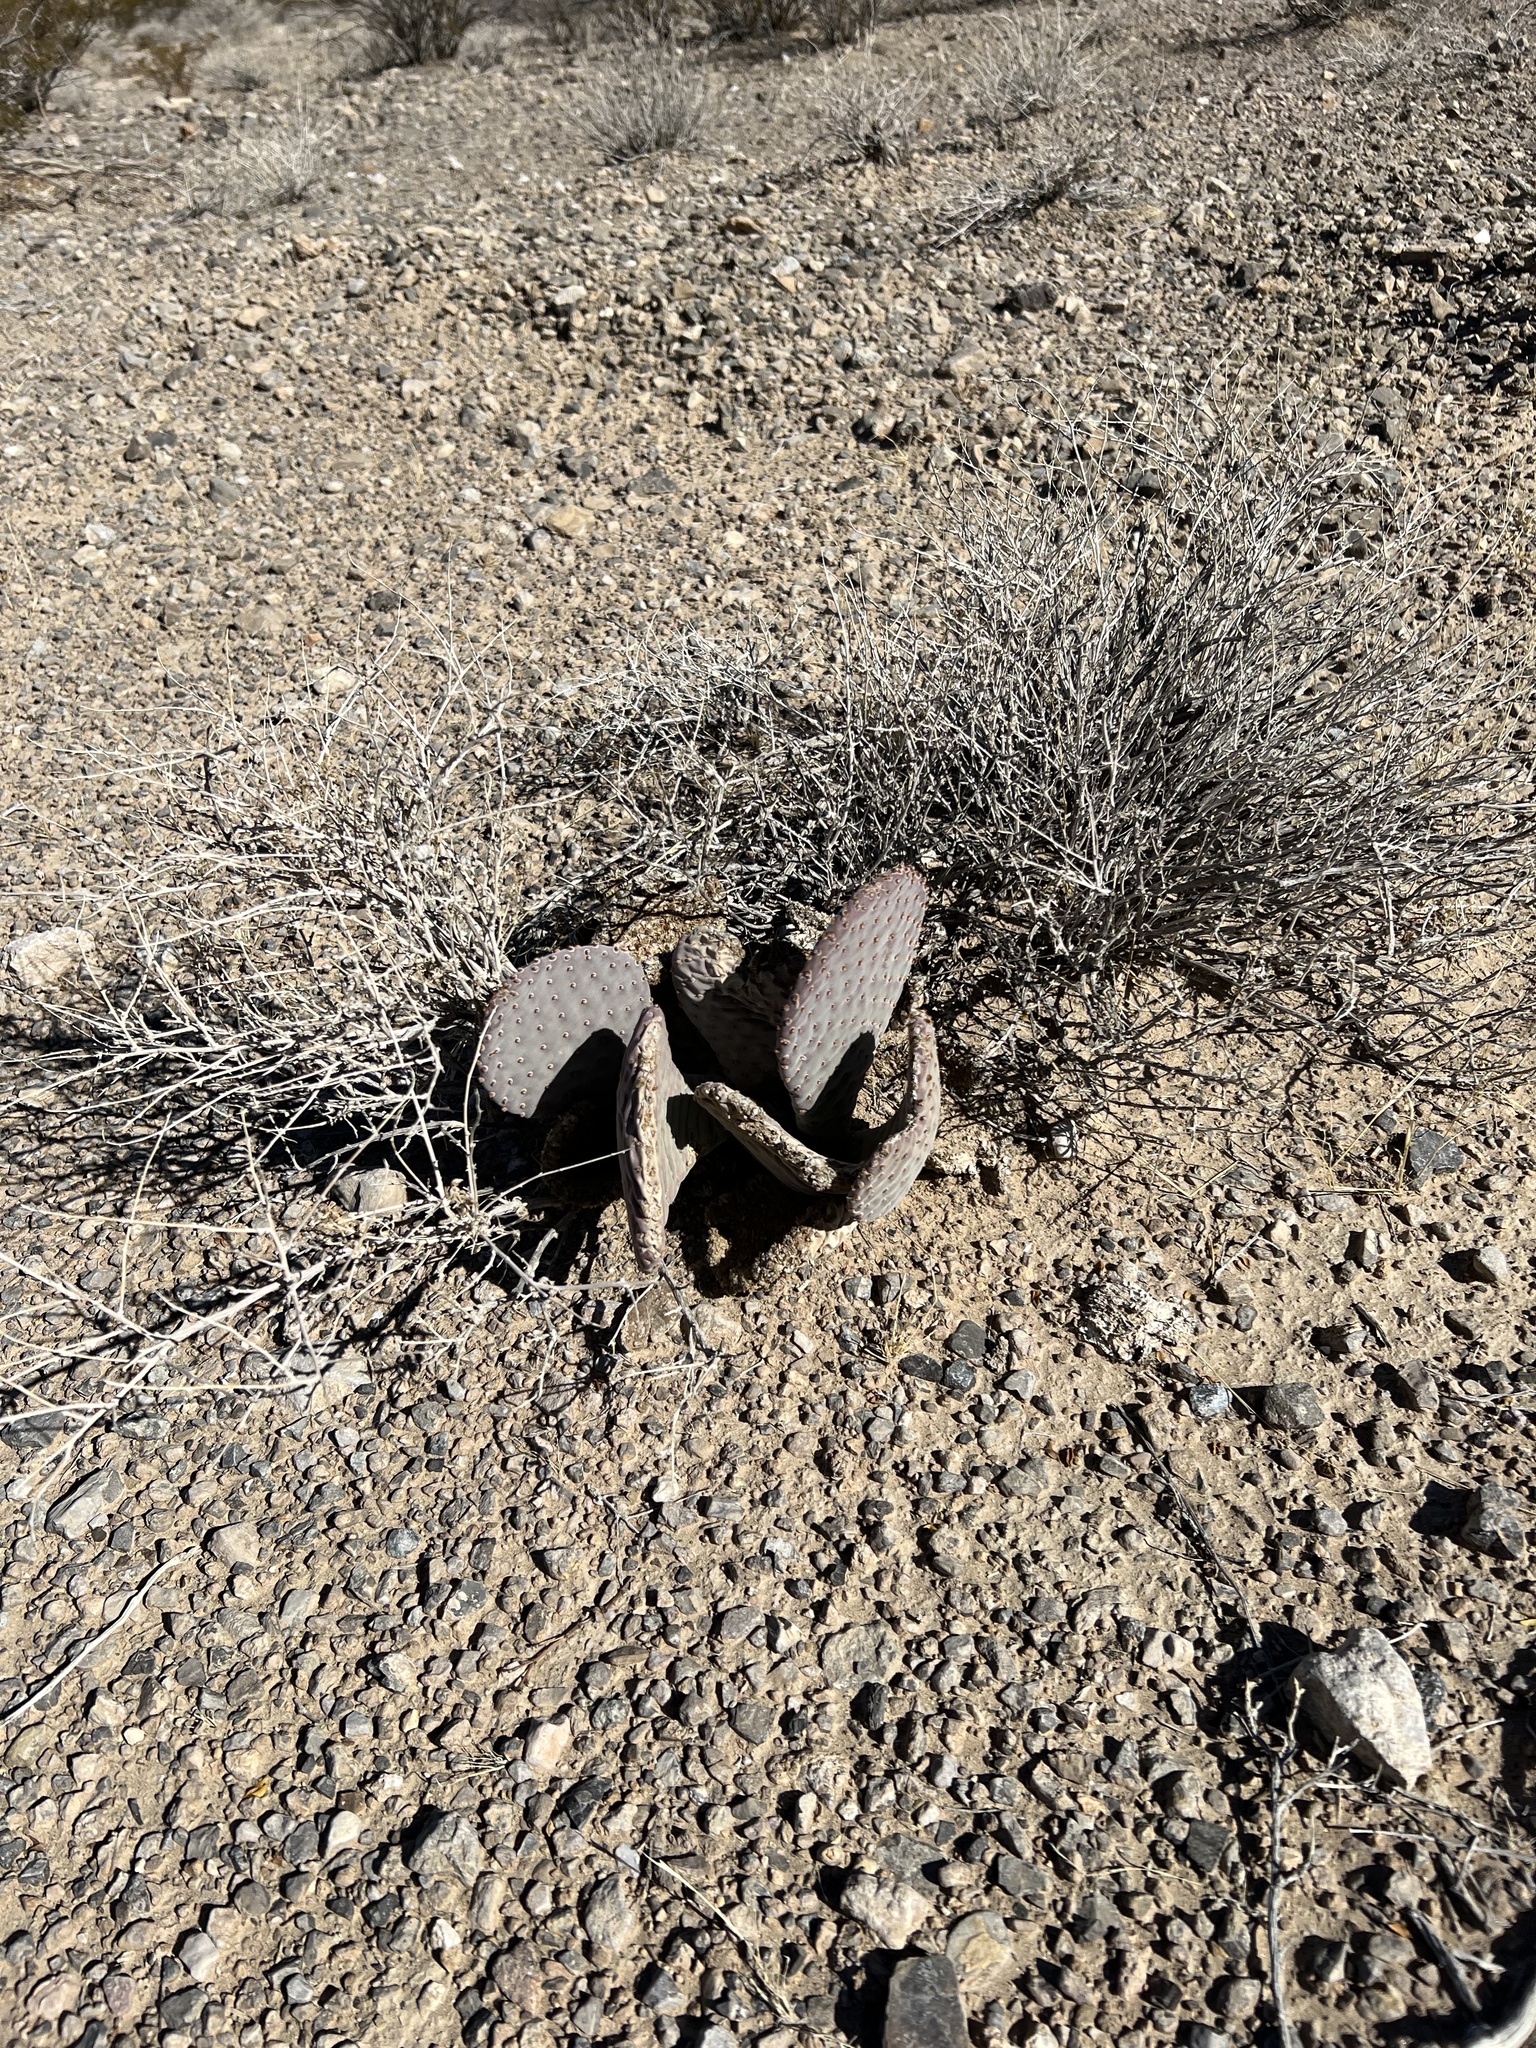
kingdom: Plantae
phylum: Tracheophyta
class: Magnoliopsida
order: Caryophyllales
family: Cactaceae
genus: Opuntia
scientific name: Opuntia basilaris
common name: Beavertail prickly-pear
